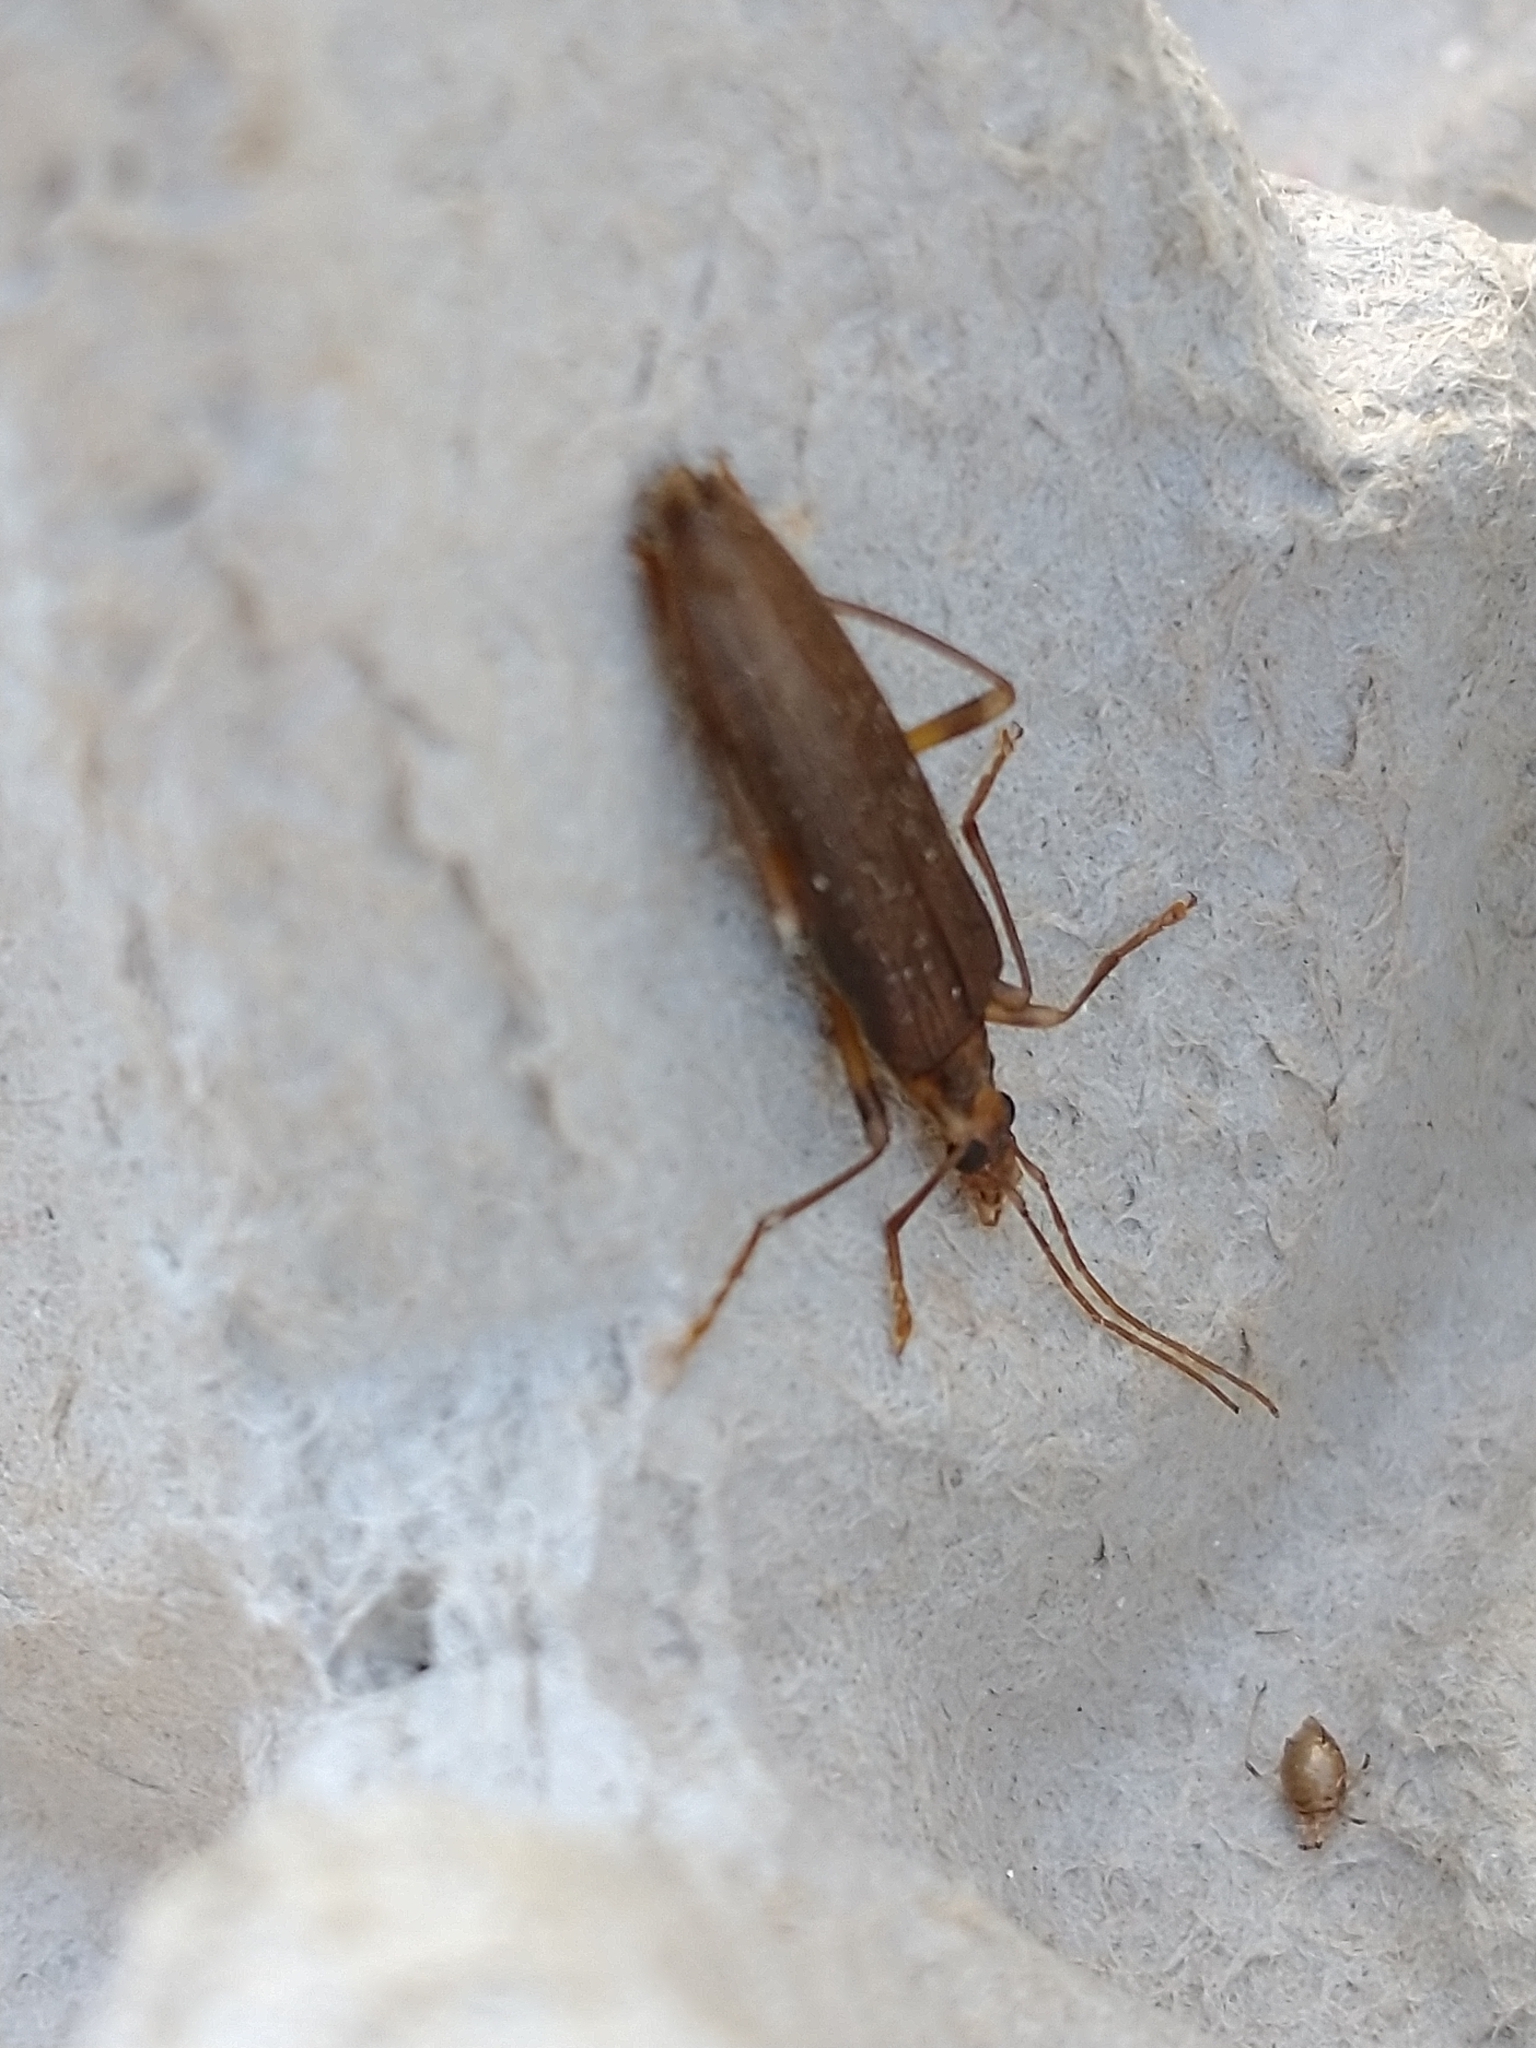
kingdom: Animalia
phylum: Arthropoda
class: Insecta
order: Coleoptera
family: Oedemeridae
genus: Oedemera
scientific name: Oedemera femoralis
